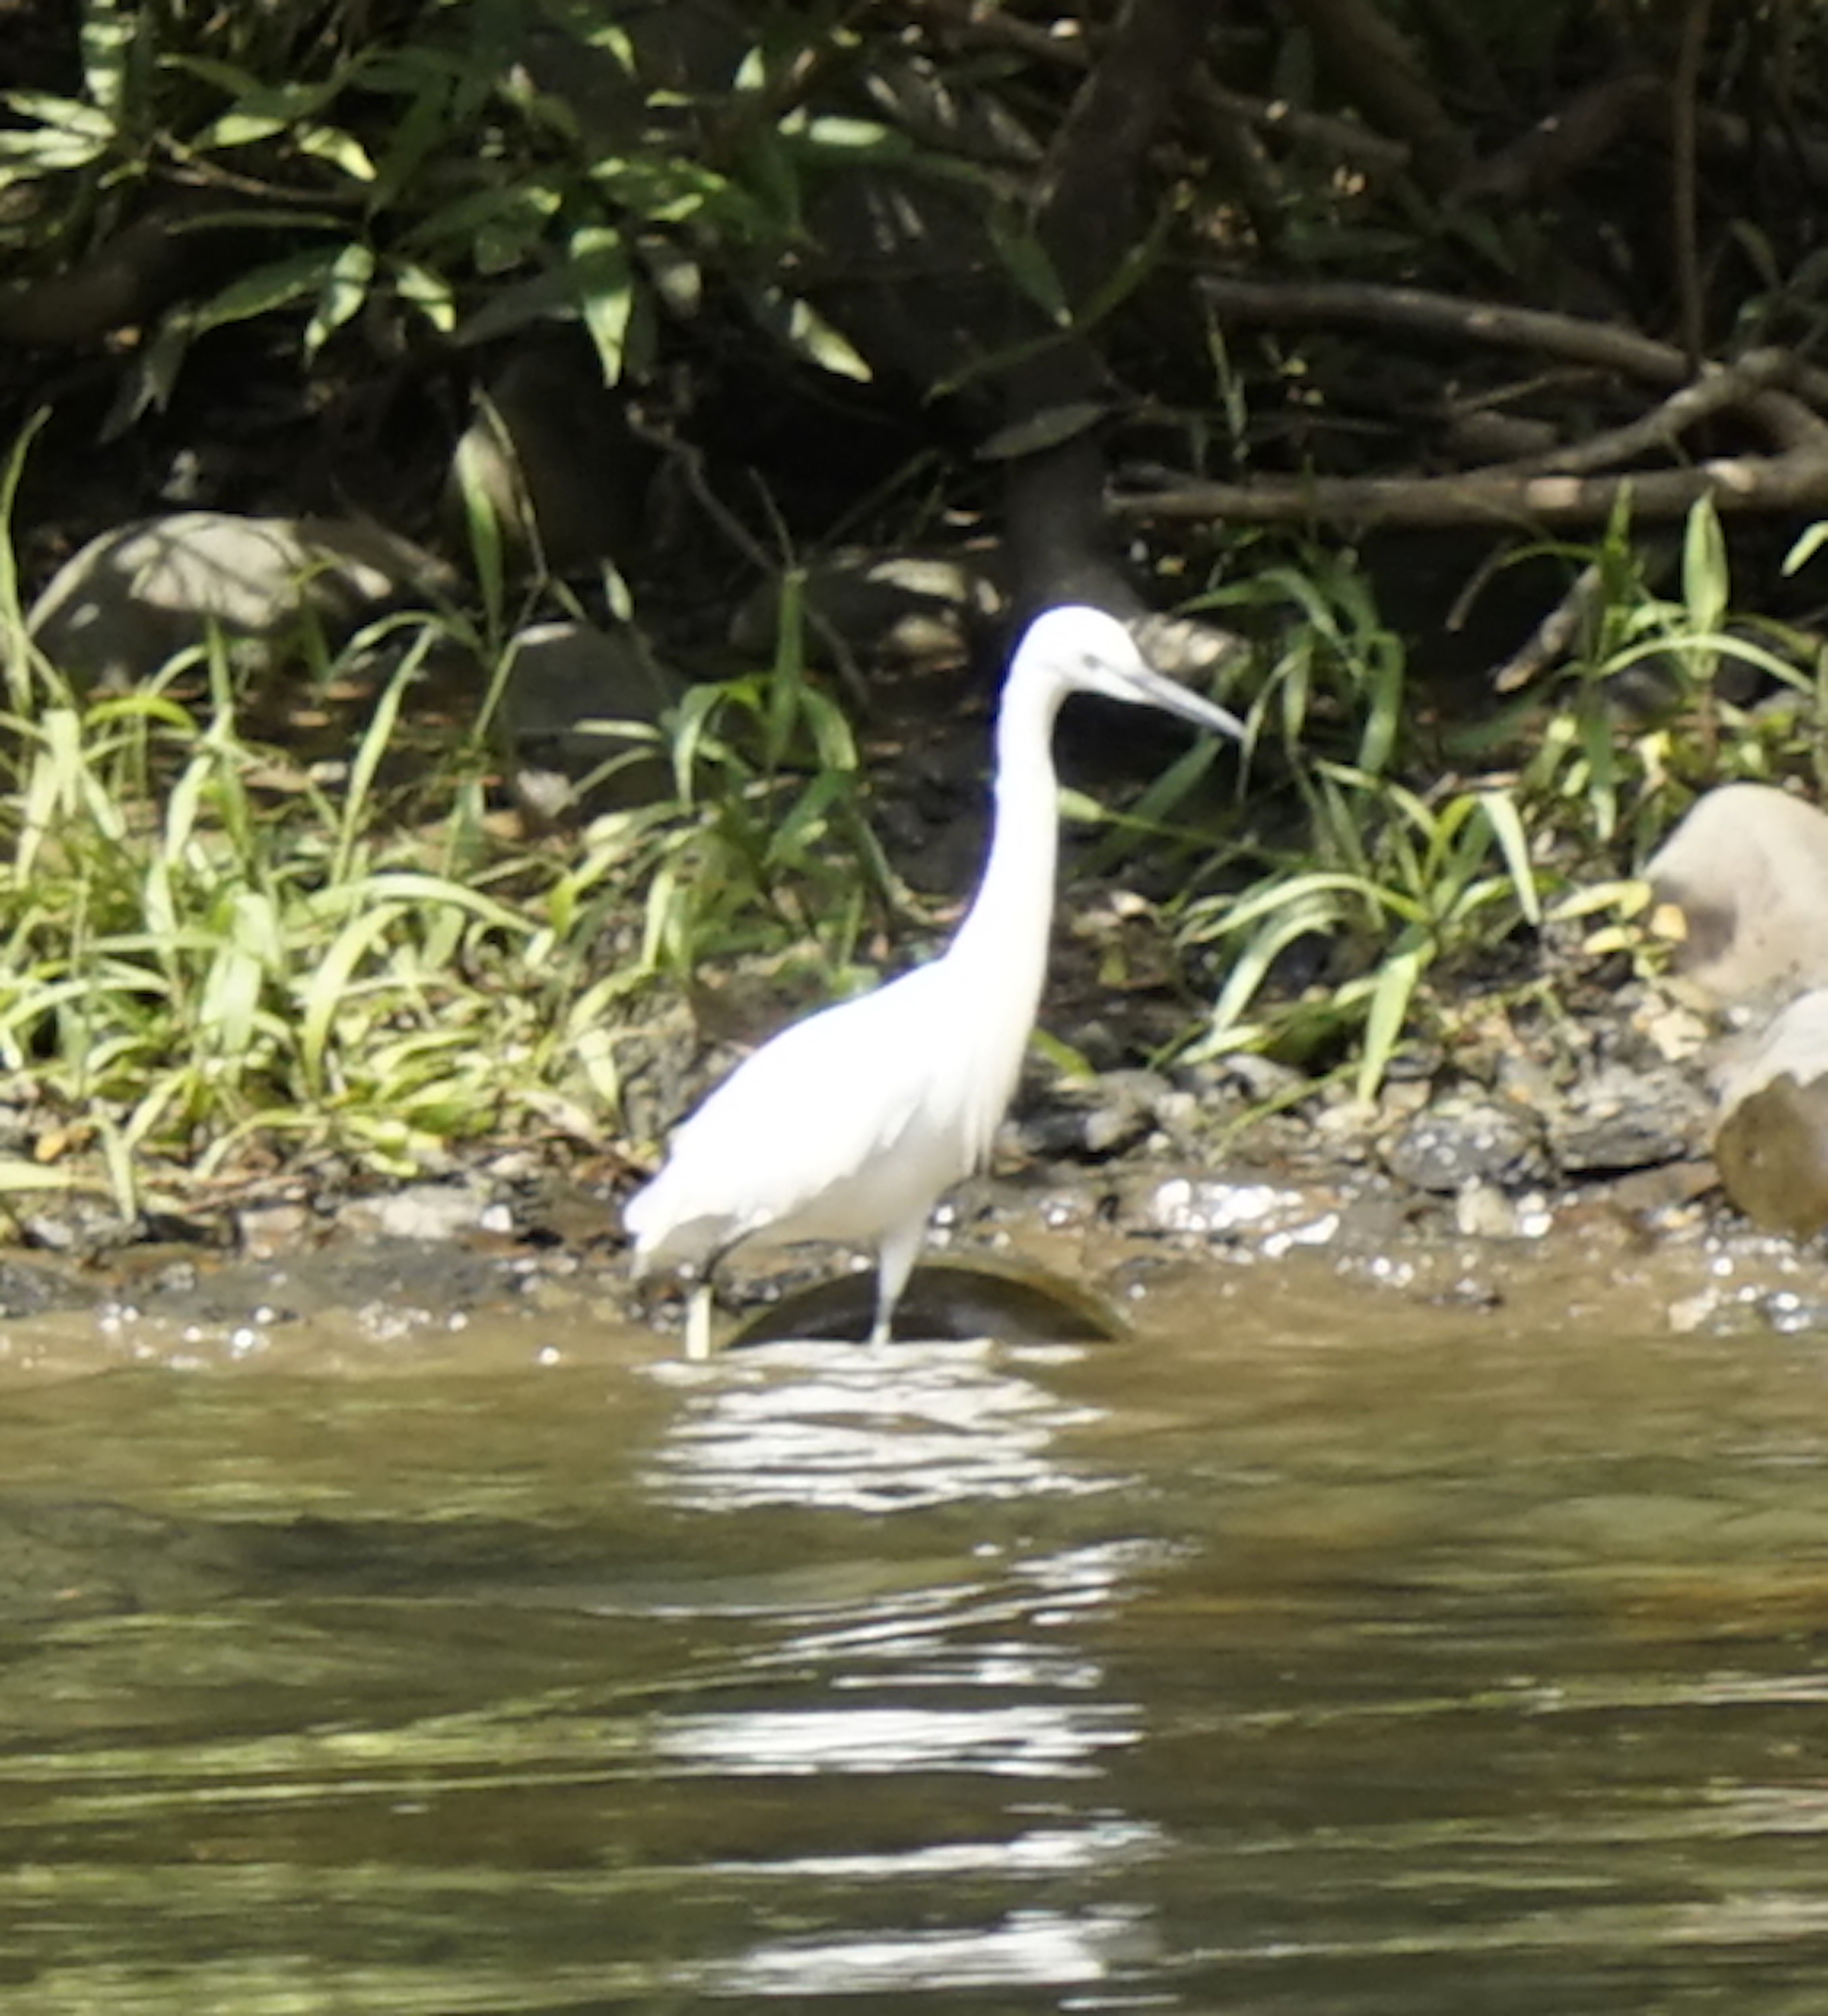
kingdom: Animalia
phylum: Chordata
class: Aves
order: Pelecaniformes
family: Ardeidae
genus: Egretta
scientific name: Egretta garzetta
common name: Little egret
